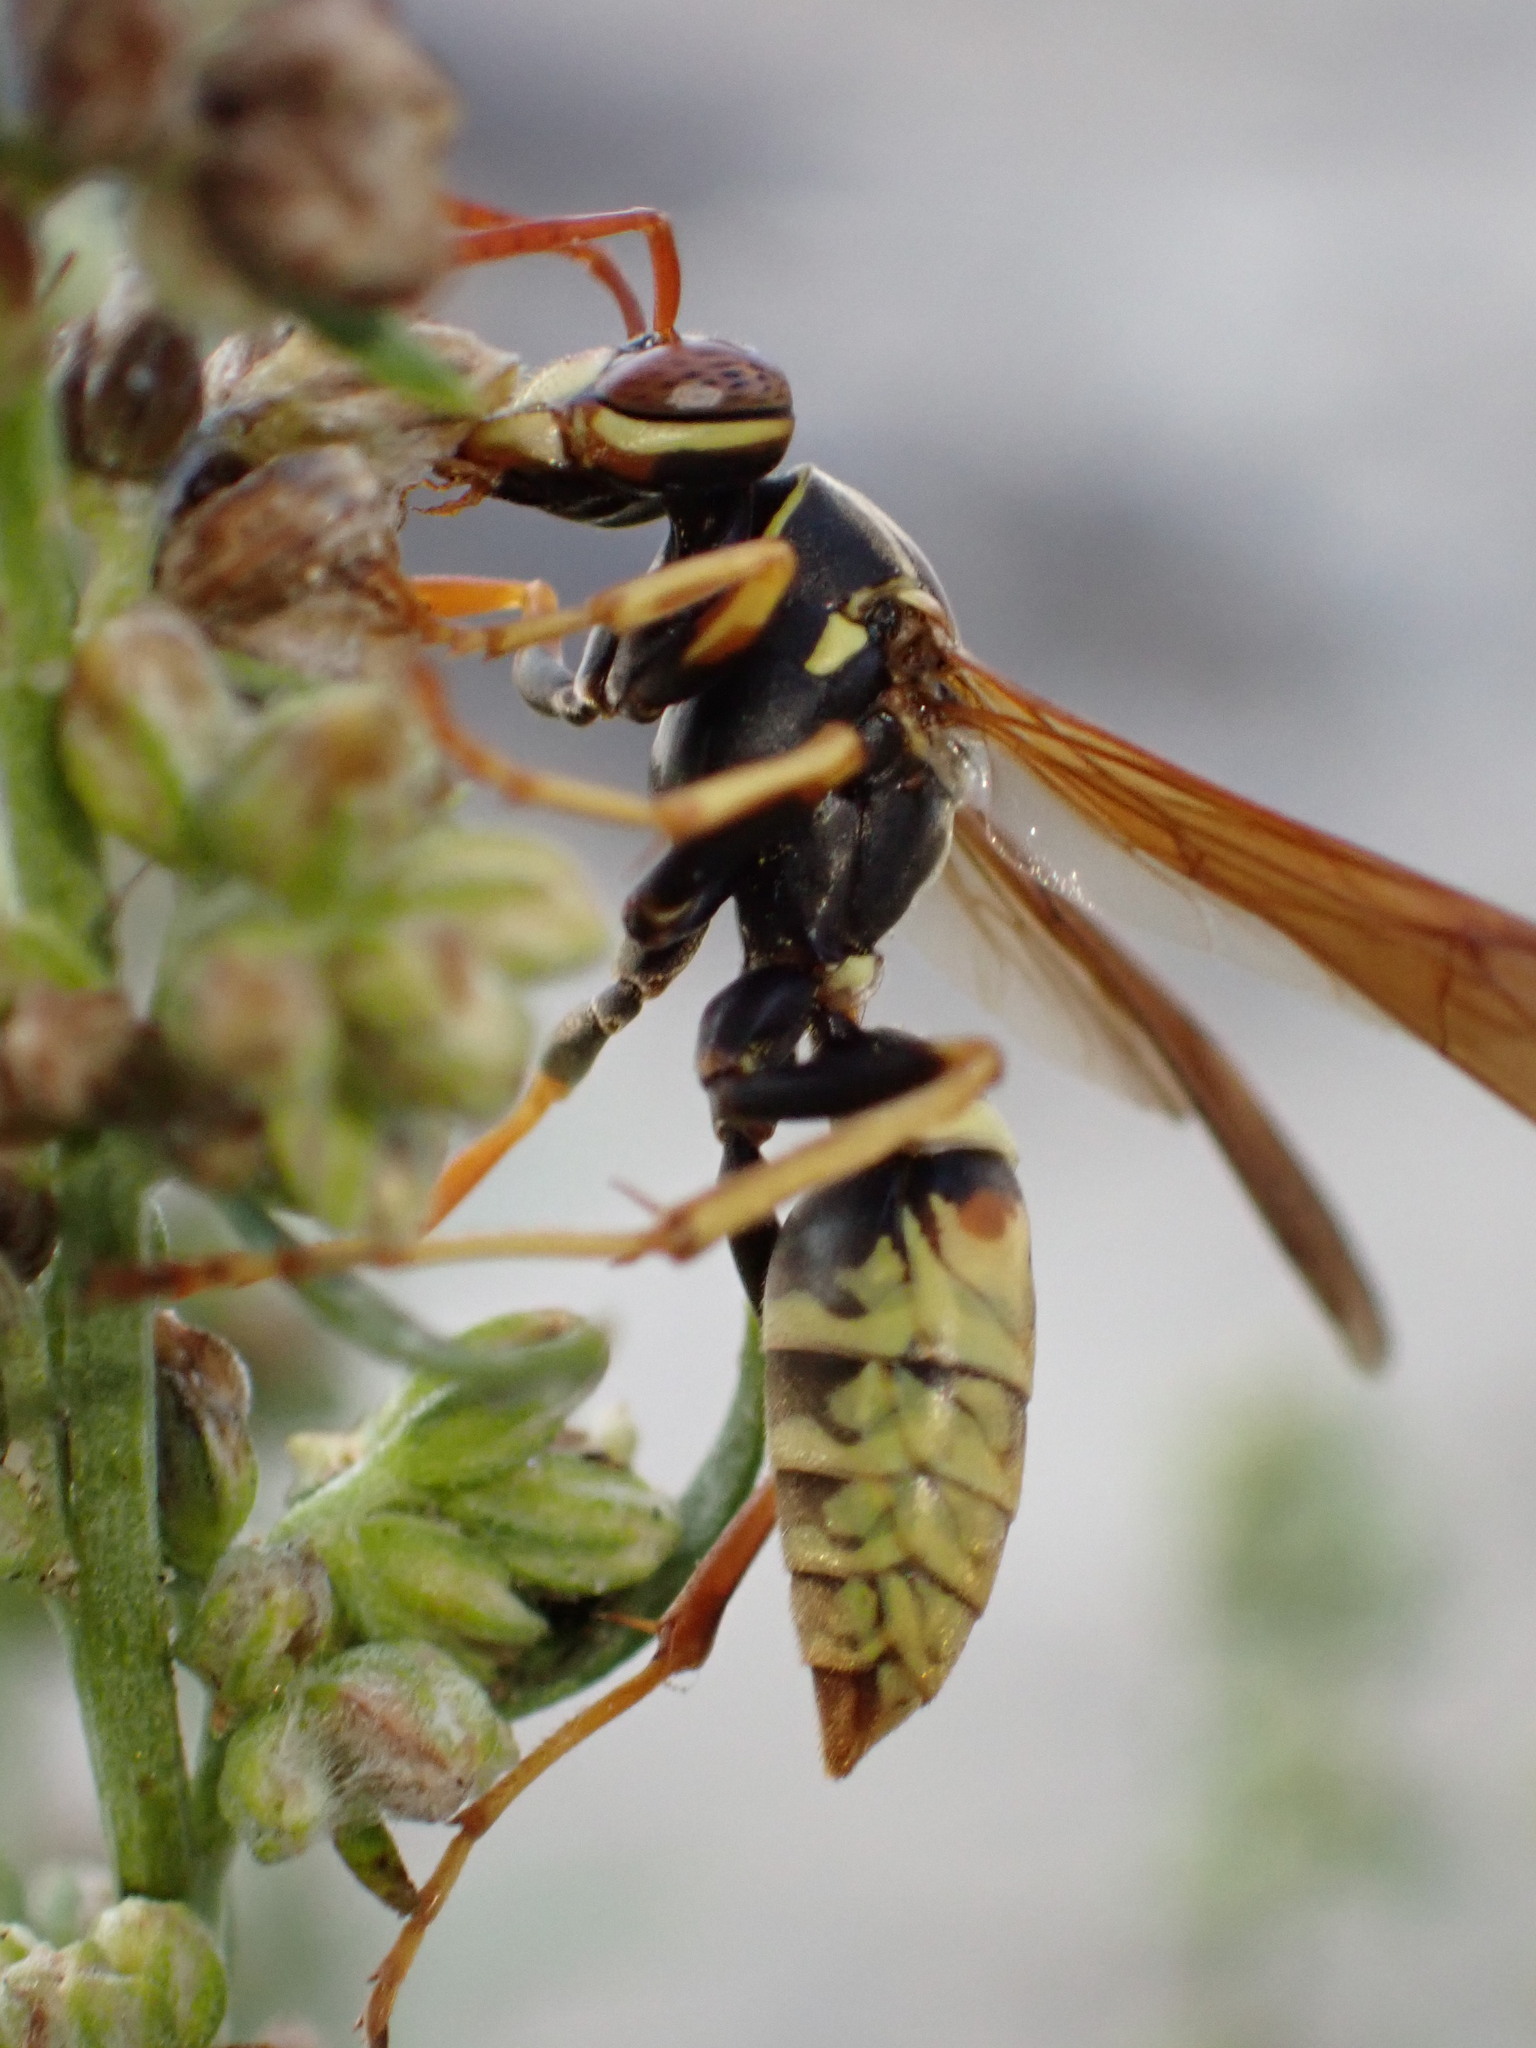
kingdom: Animalia
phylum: Arthropoda
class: Insecta
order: Hymenoptera
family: Eumenidae
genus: Polistes
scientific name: Polistes aurifer
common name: Paper wasp
